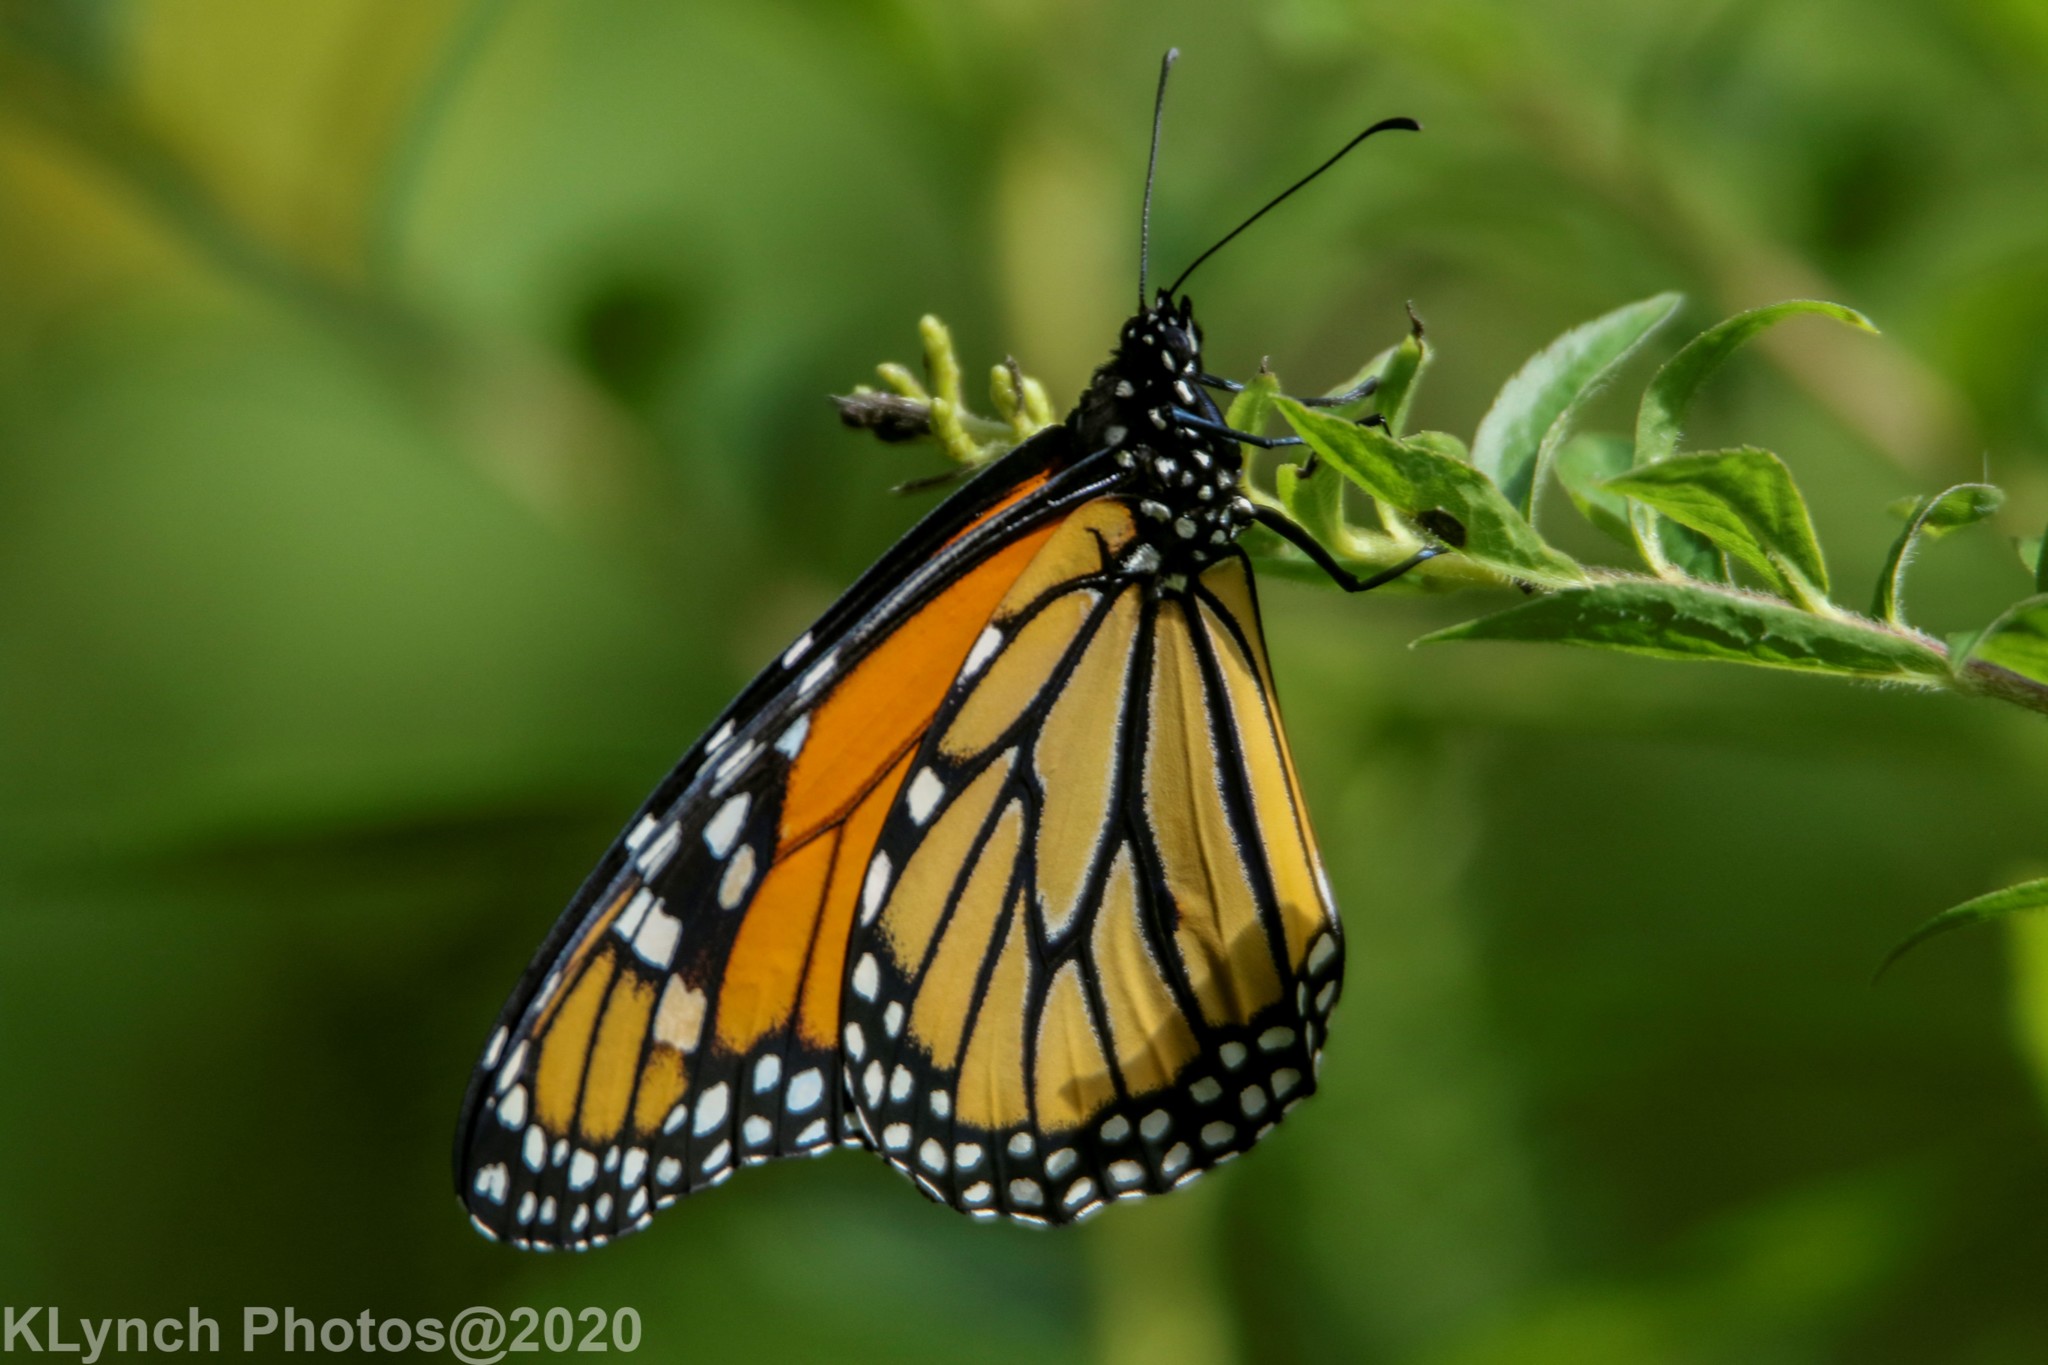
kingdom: Animalia
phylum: Arthropoda
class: Insecta
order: Lepidoptera
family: Nymphalidae
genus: Danaus
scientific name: Danaus plexippus
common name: Monarch
